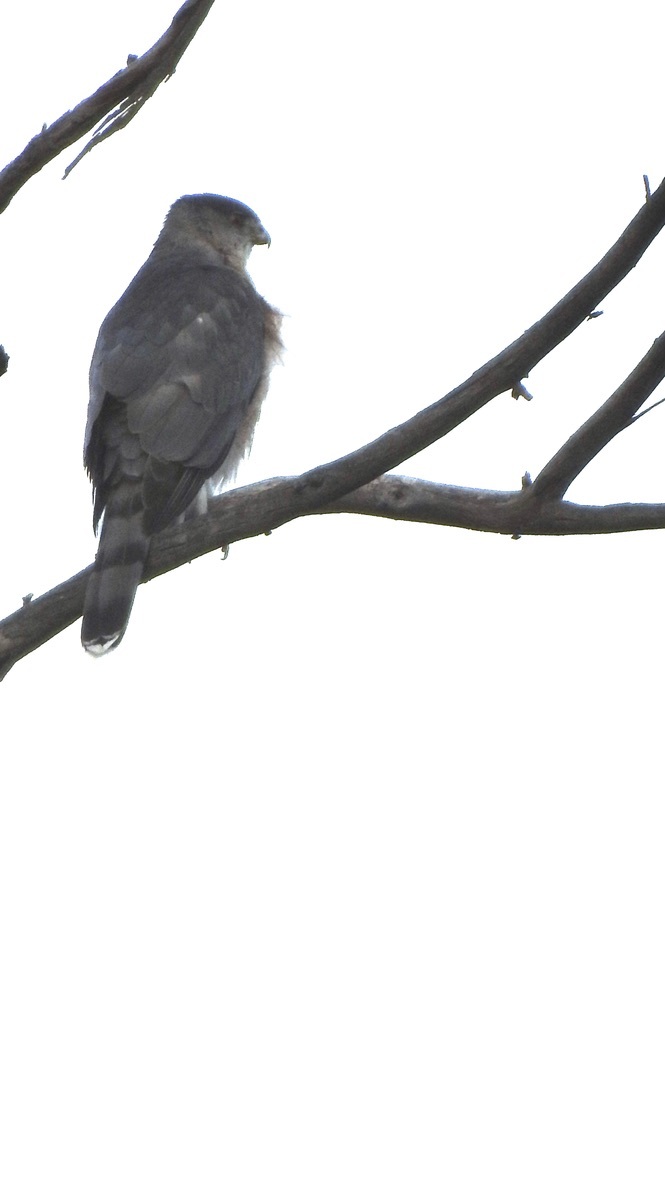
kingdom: Animalia
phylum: Chordata
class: Aves
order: Accipitriformes
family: Accipitridae
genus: Accipiter
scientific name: Accipiter cooperii
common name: Cooper's hawk
